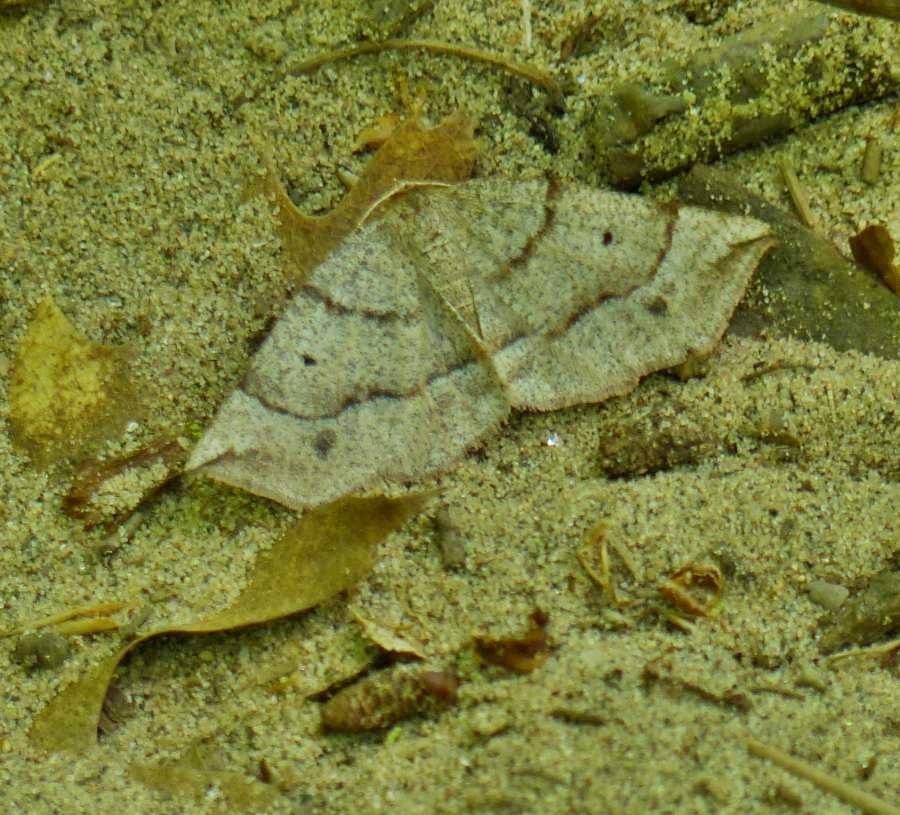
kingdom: Animalia
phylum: Arthropoda
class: Insecta
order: Lepidoptera
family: Geometridae
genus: Metarranthis
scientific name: Metarranthis duaria
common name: Ruddy metarranthis moth
